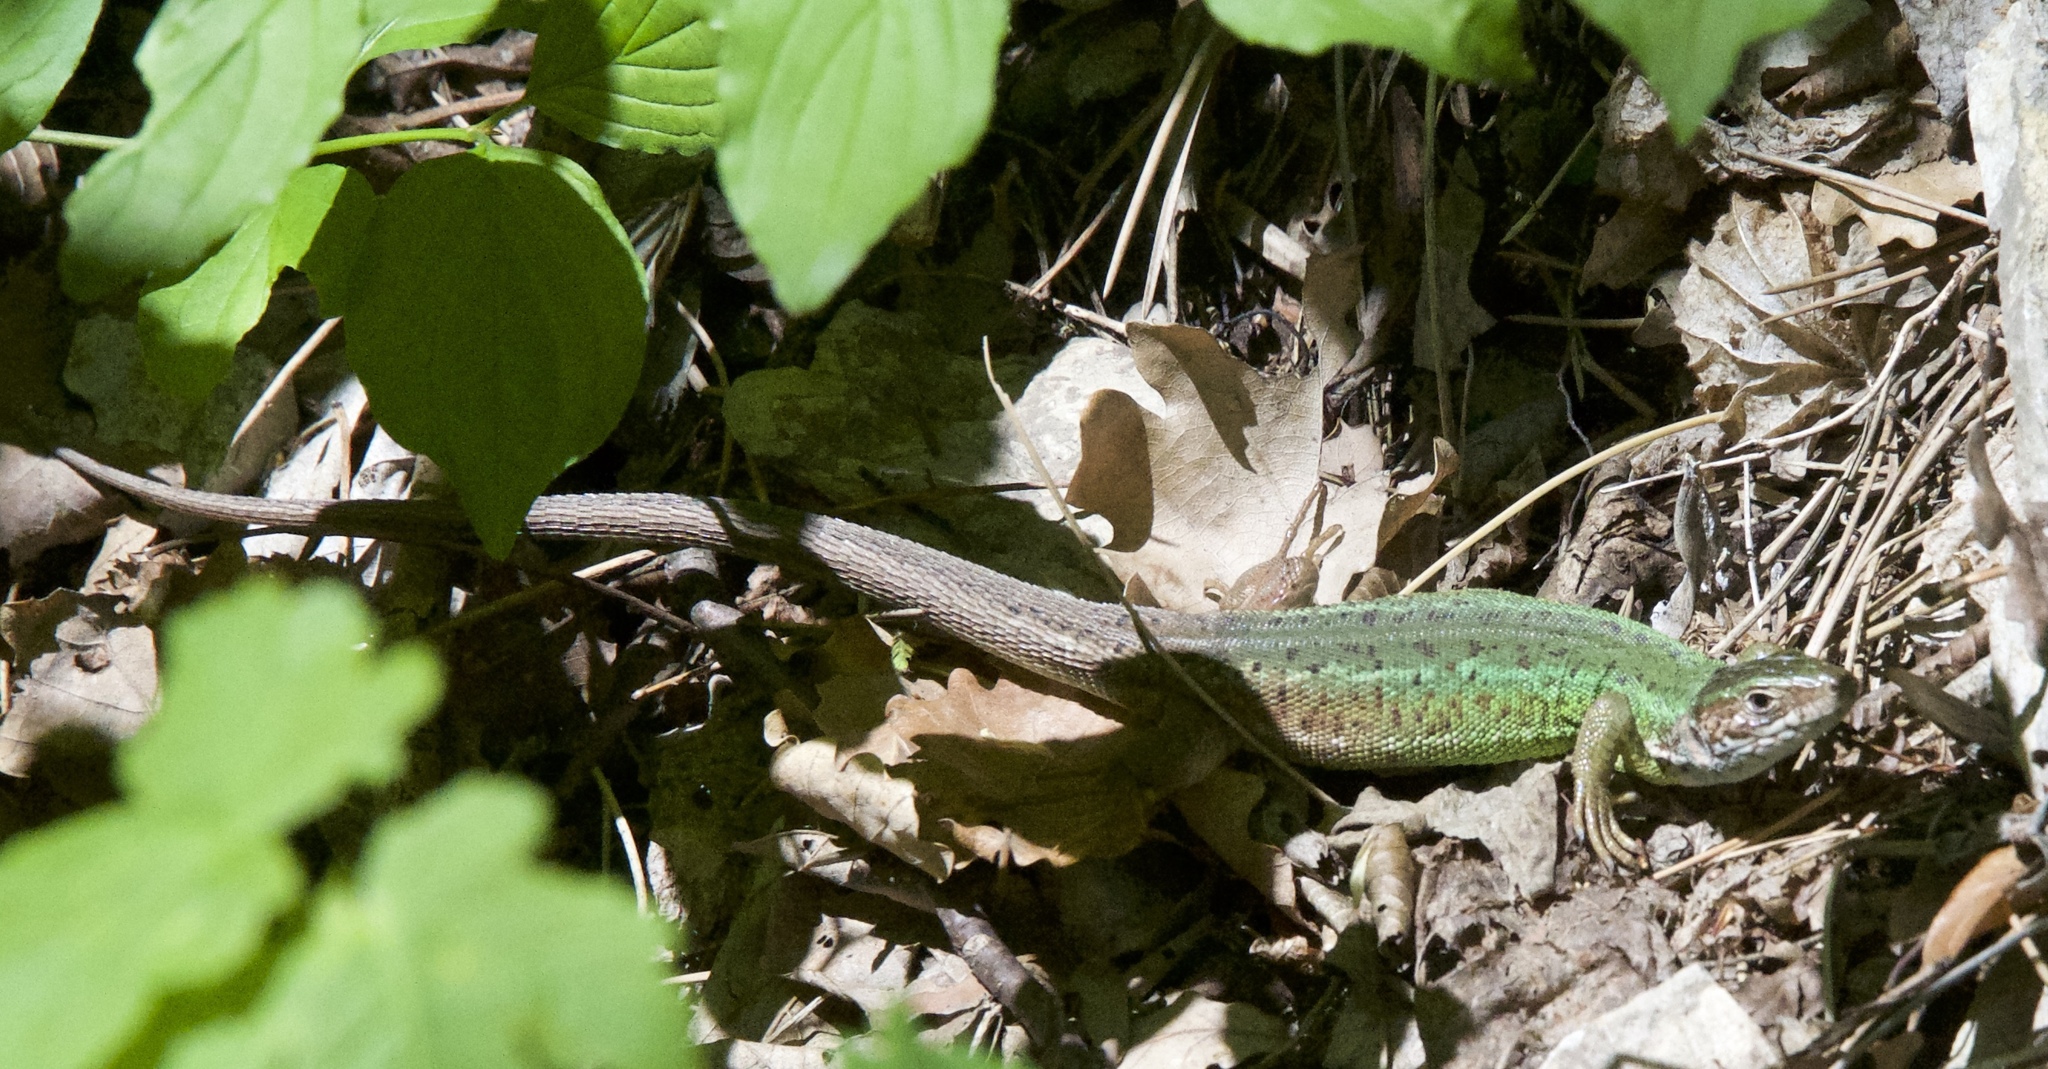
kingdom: Animalia
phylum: Chordata
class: Squamata
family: Lacertidae
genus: Lacerta
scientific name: Lacerta viridis
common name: European green lizard
